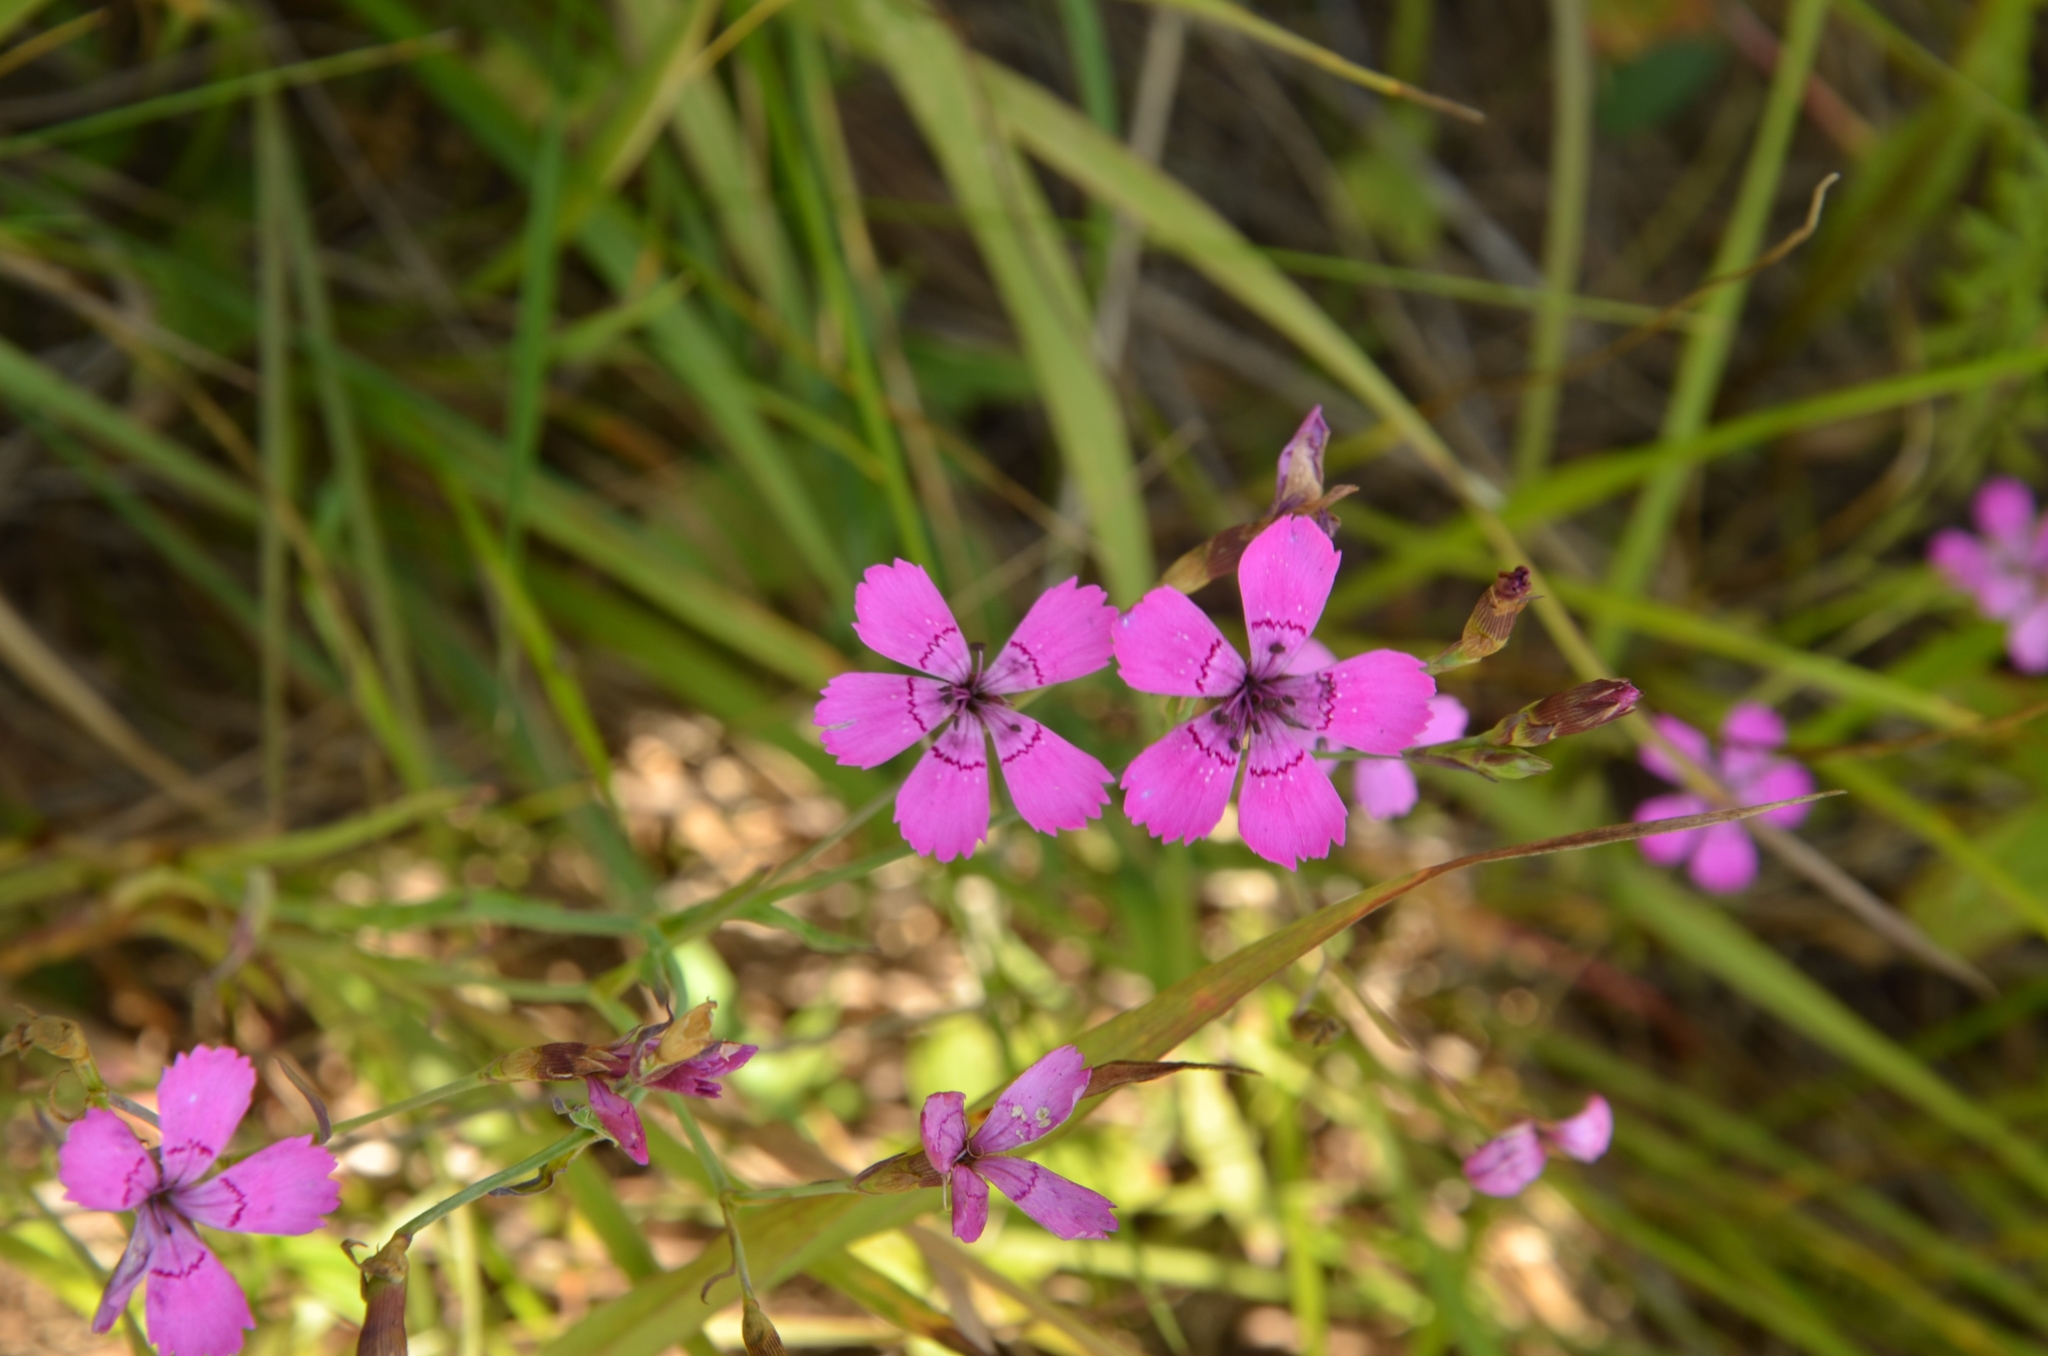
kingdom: Plantae
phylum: Tracheophyta
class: Magnoliopsida
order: Caryophyllales
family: Caryophyllaceae
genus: Dianthus
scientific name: Dianthus deltoides
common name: Maiden pink
